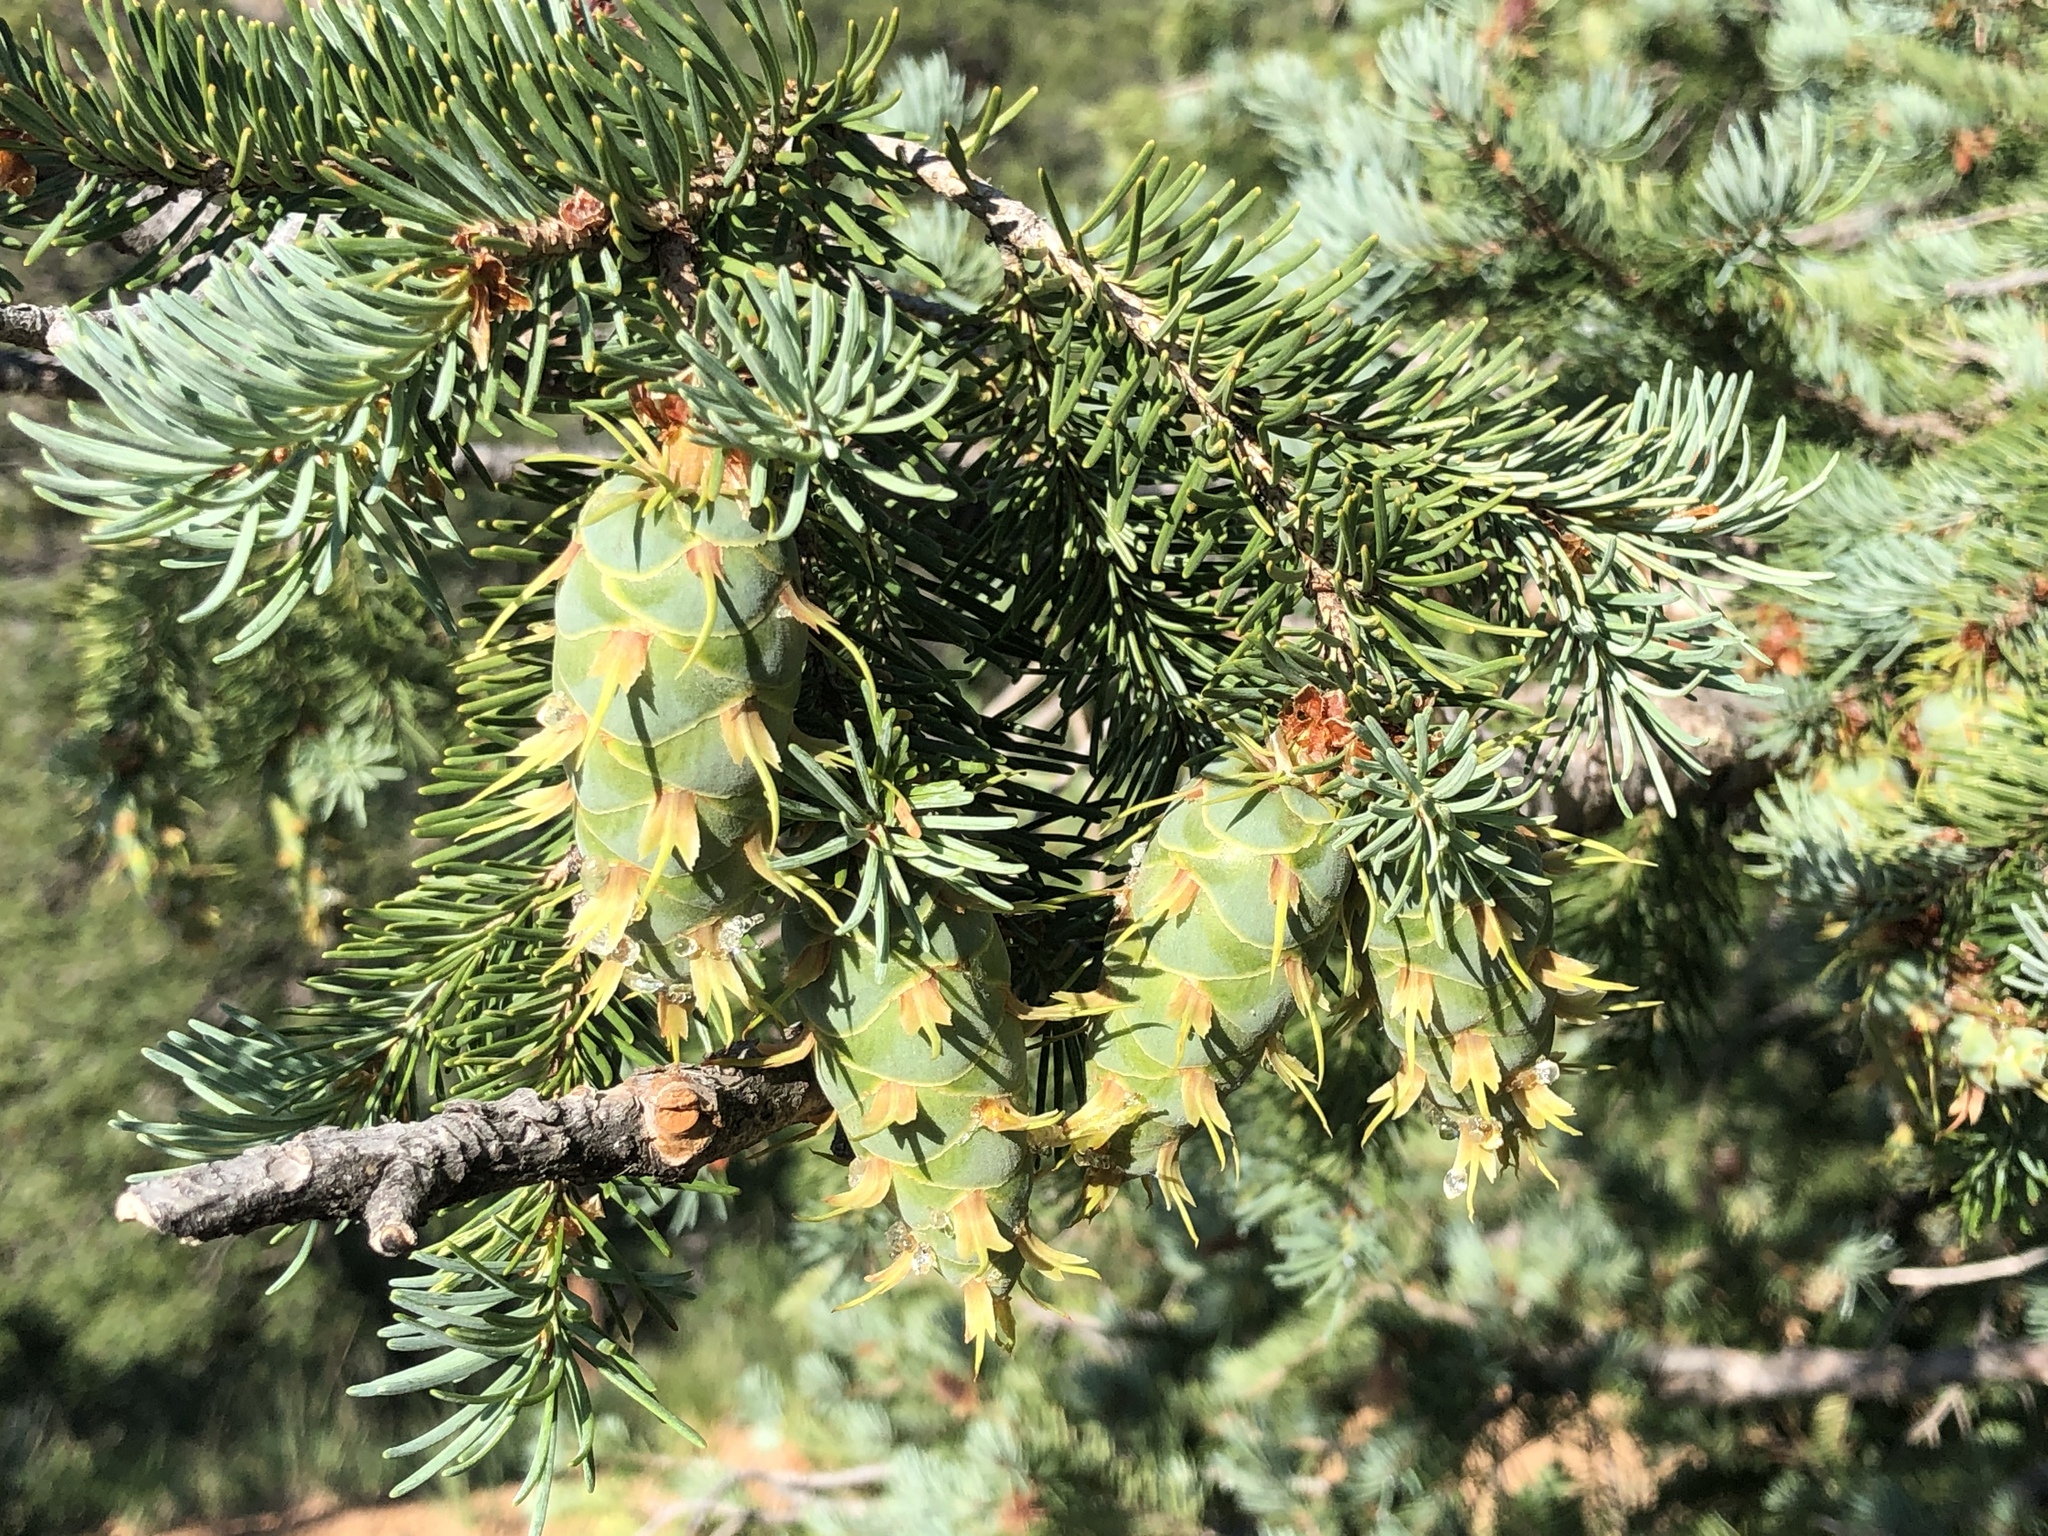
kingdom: Plantae
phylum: Tracheophyta
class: Pinopsida
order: Pinales
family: Pinaceae
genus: Pseudotsuga
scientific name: Pseudotsuga menziesii
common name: Douglas fir
